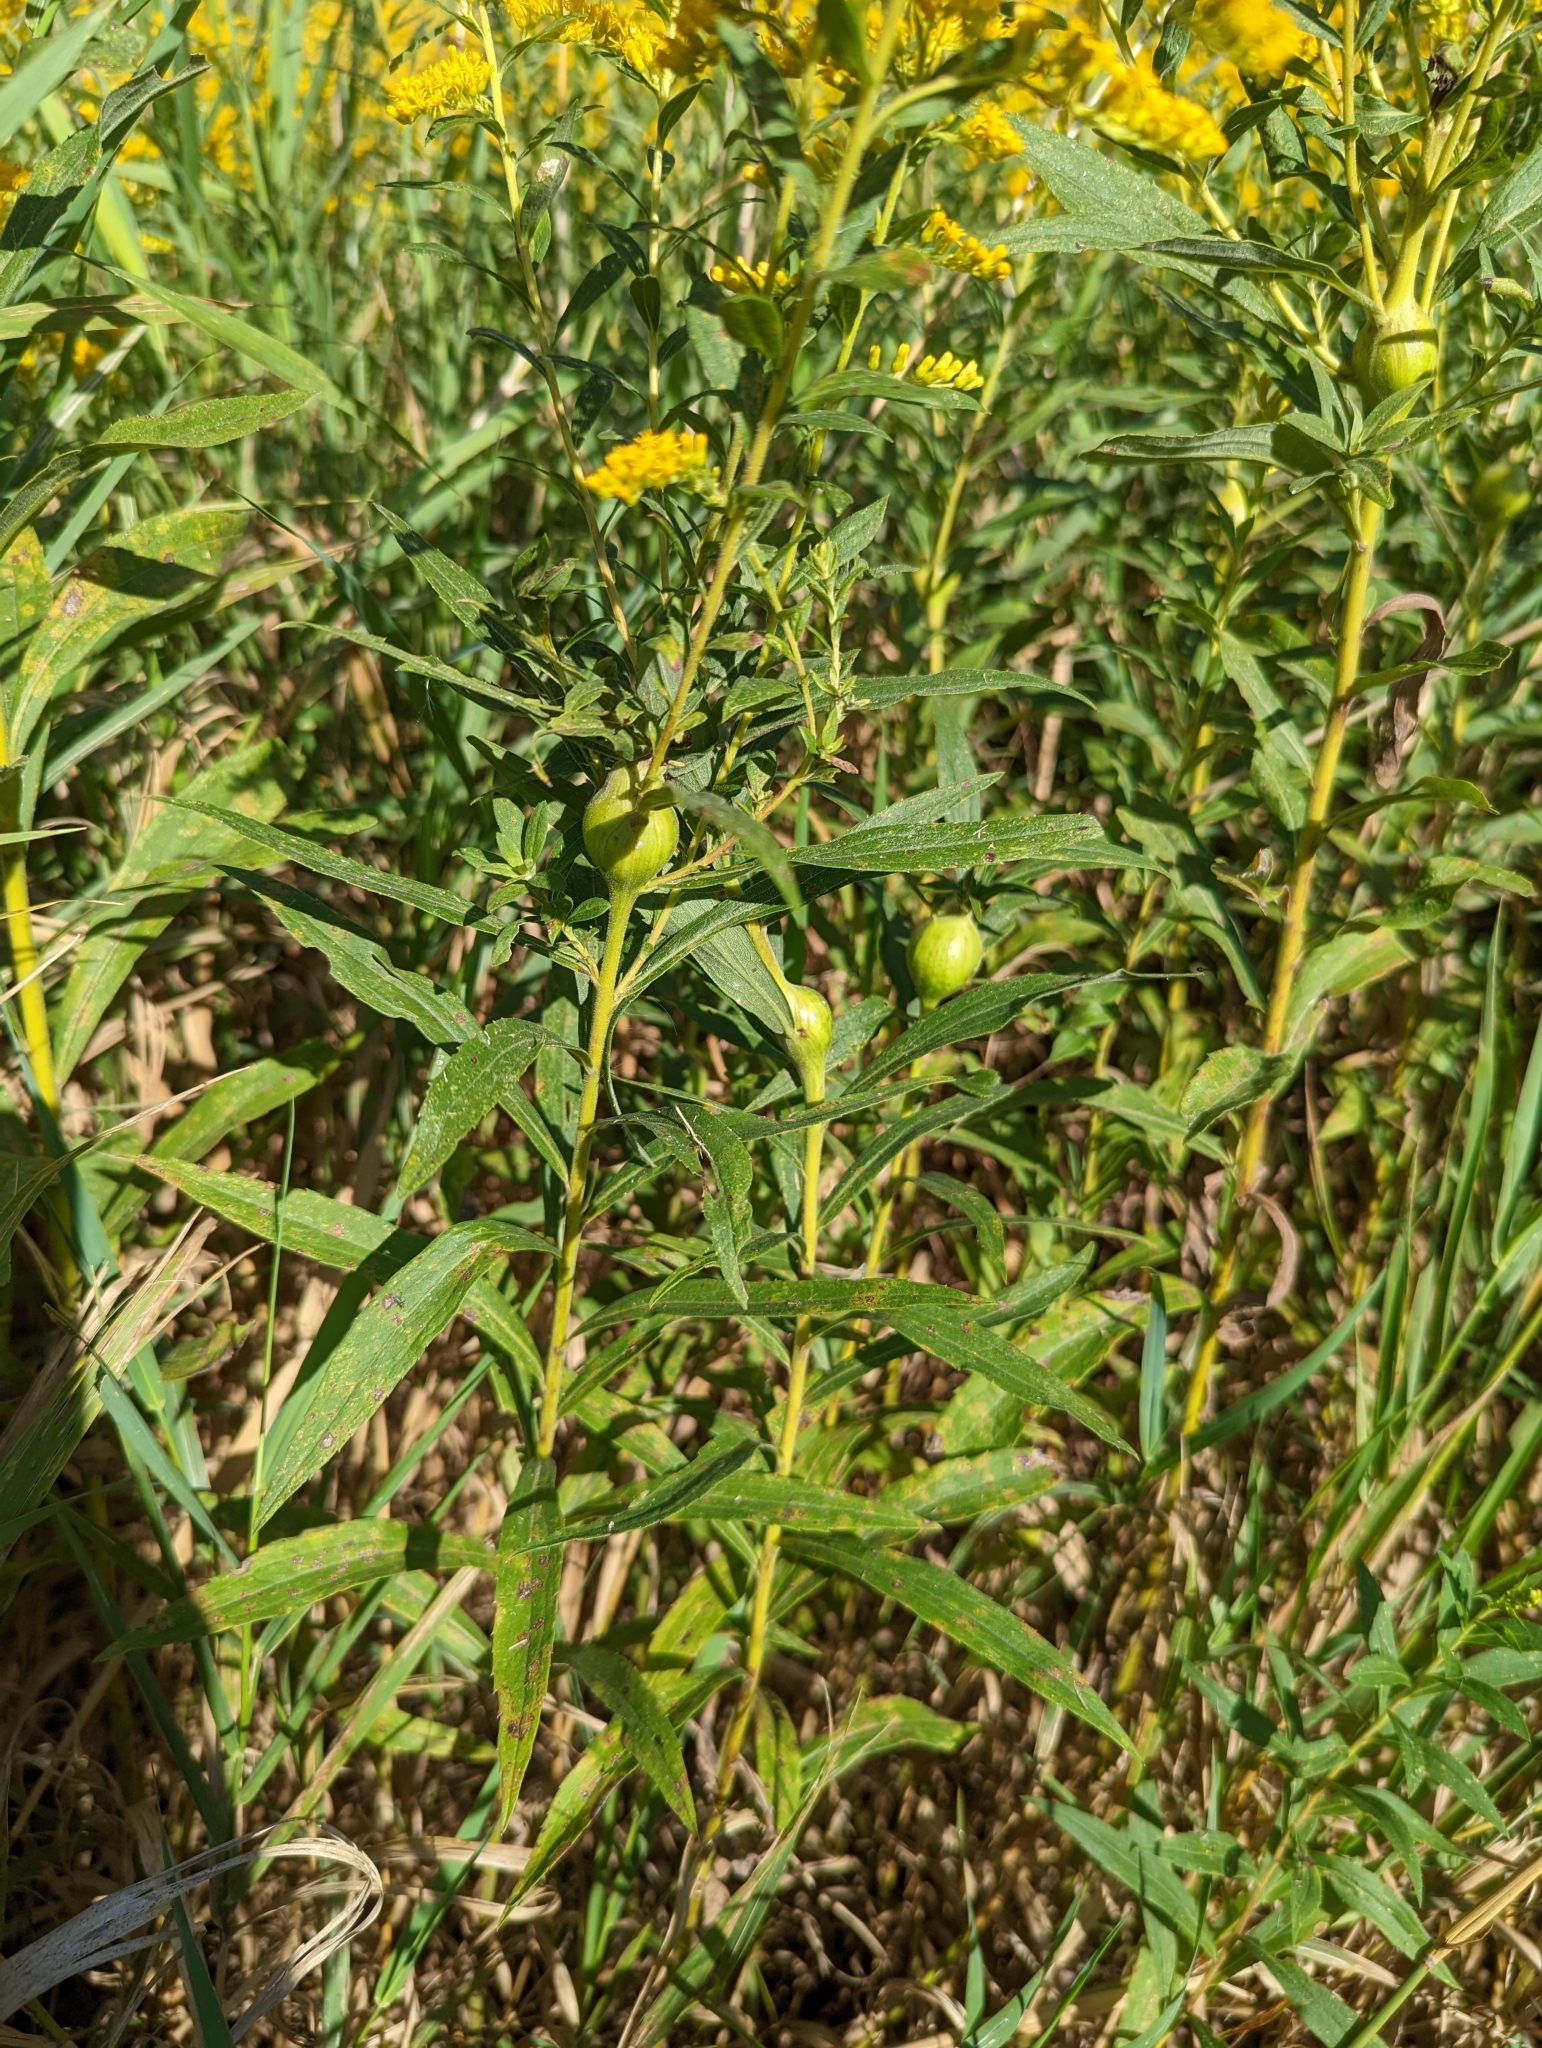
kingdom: Animalia
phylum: Arthropoda
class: Insecta
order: Diptera
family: Tephritidae
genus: Eurosta
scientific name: Eurosta solidaginis
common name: Goldenrod gall fly
